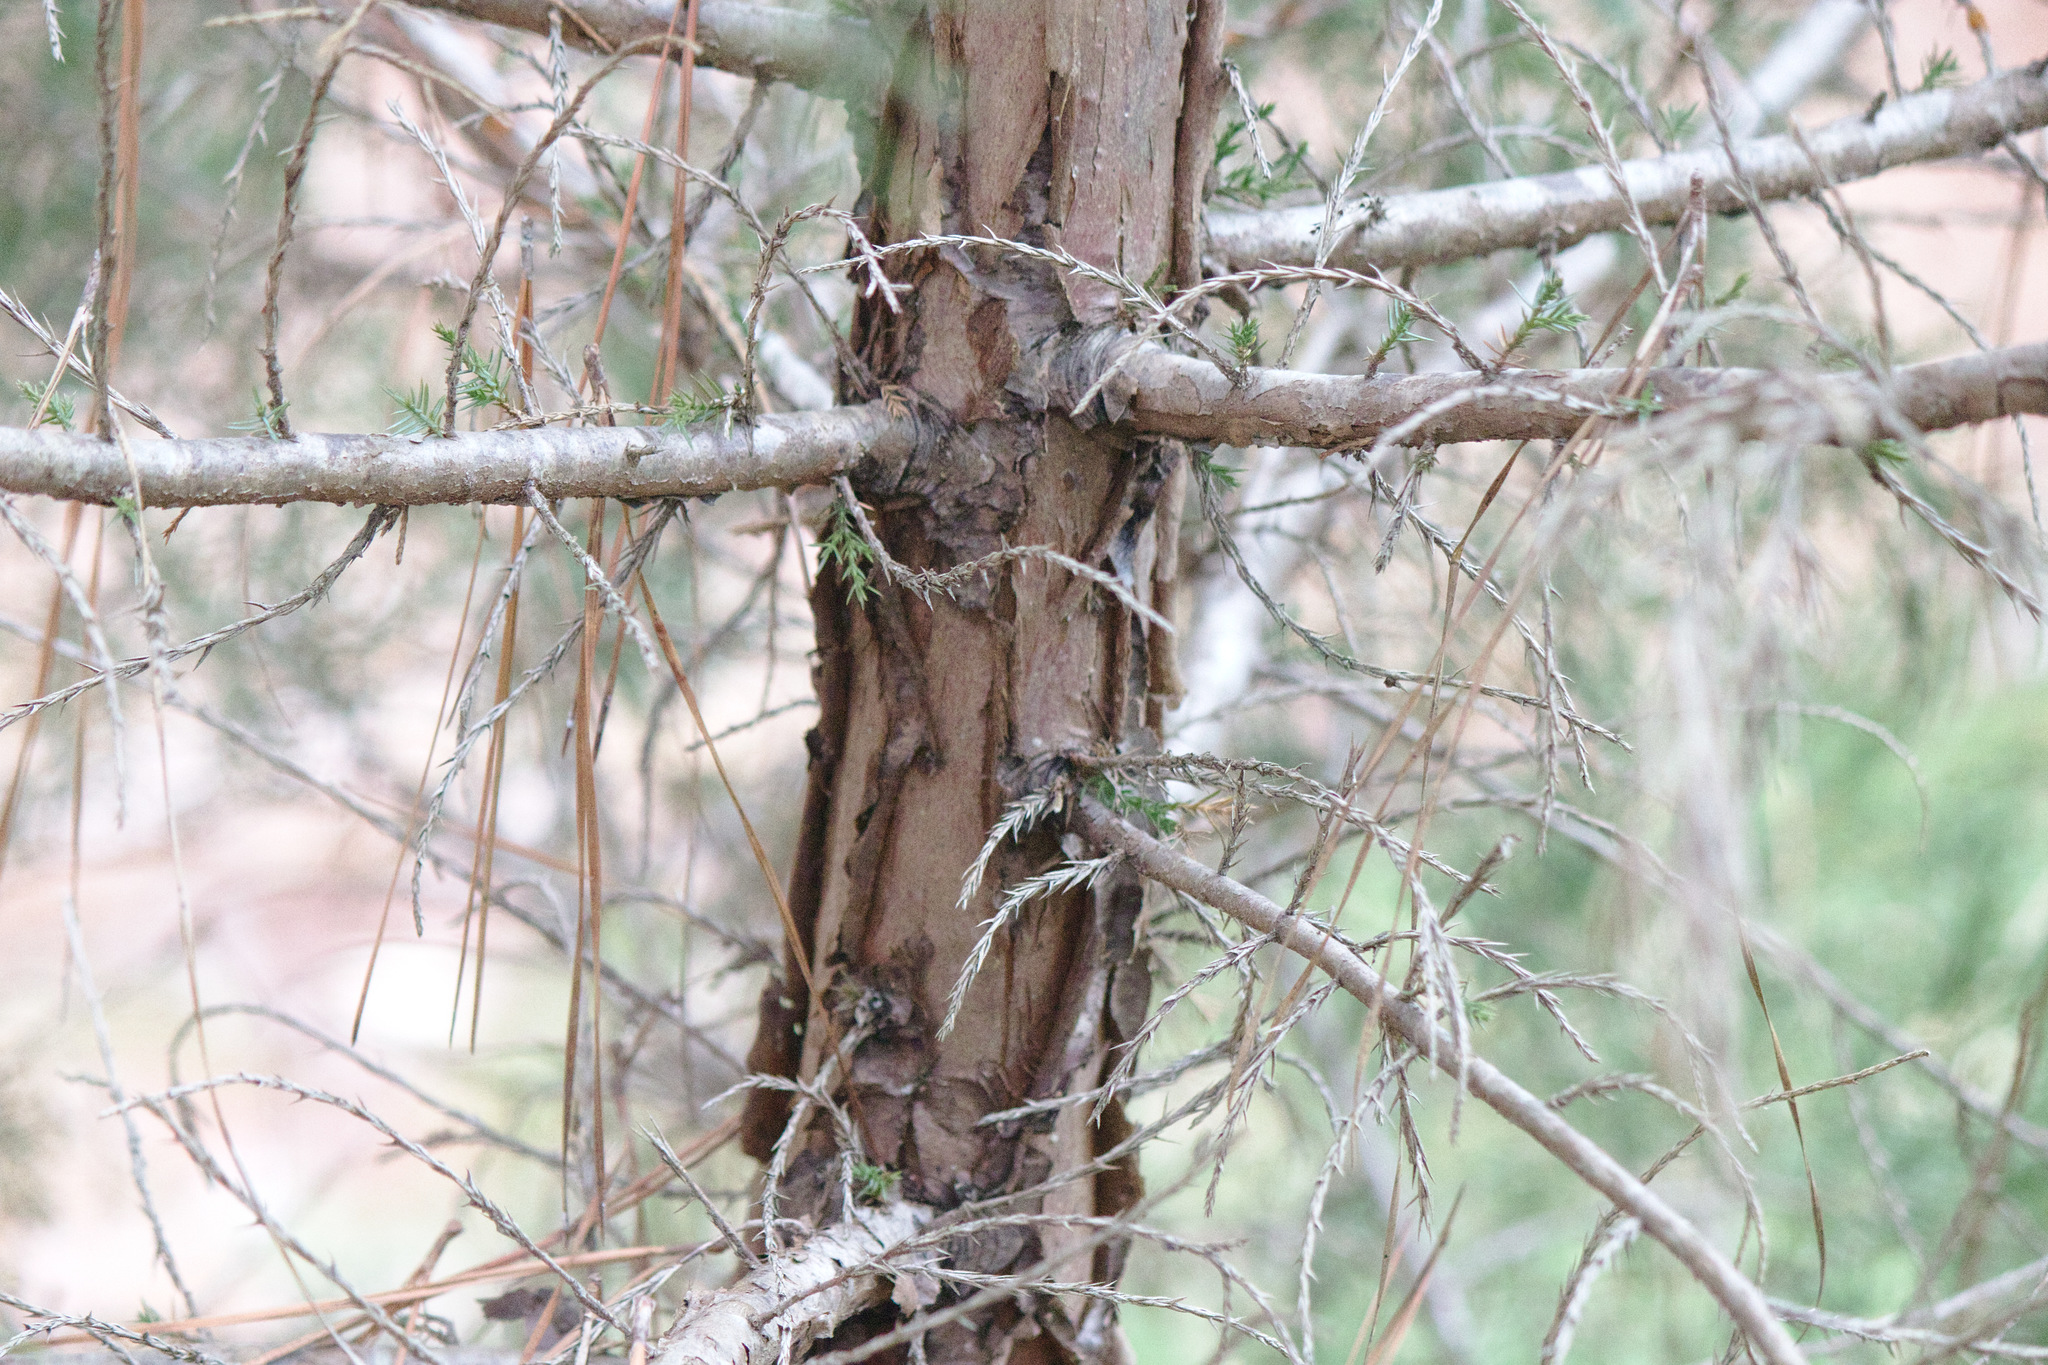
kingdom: Plantae
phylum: Tracheophyta
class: Pinopsida
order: Pinales
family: Cupressaceae
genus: Juniperus
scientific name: Juniperus virginiana
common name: Red juniper
